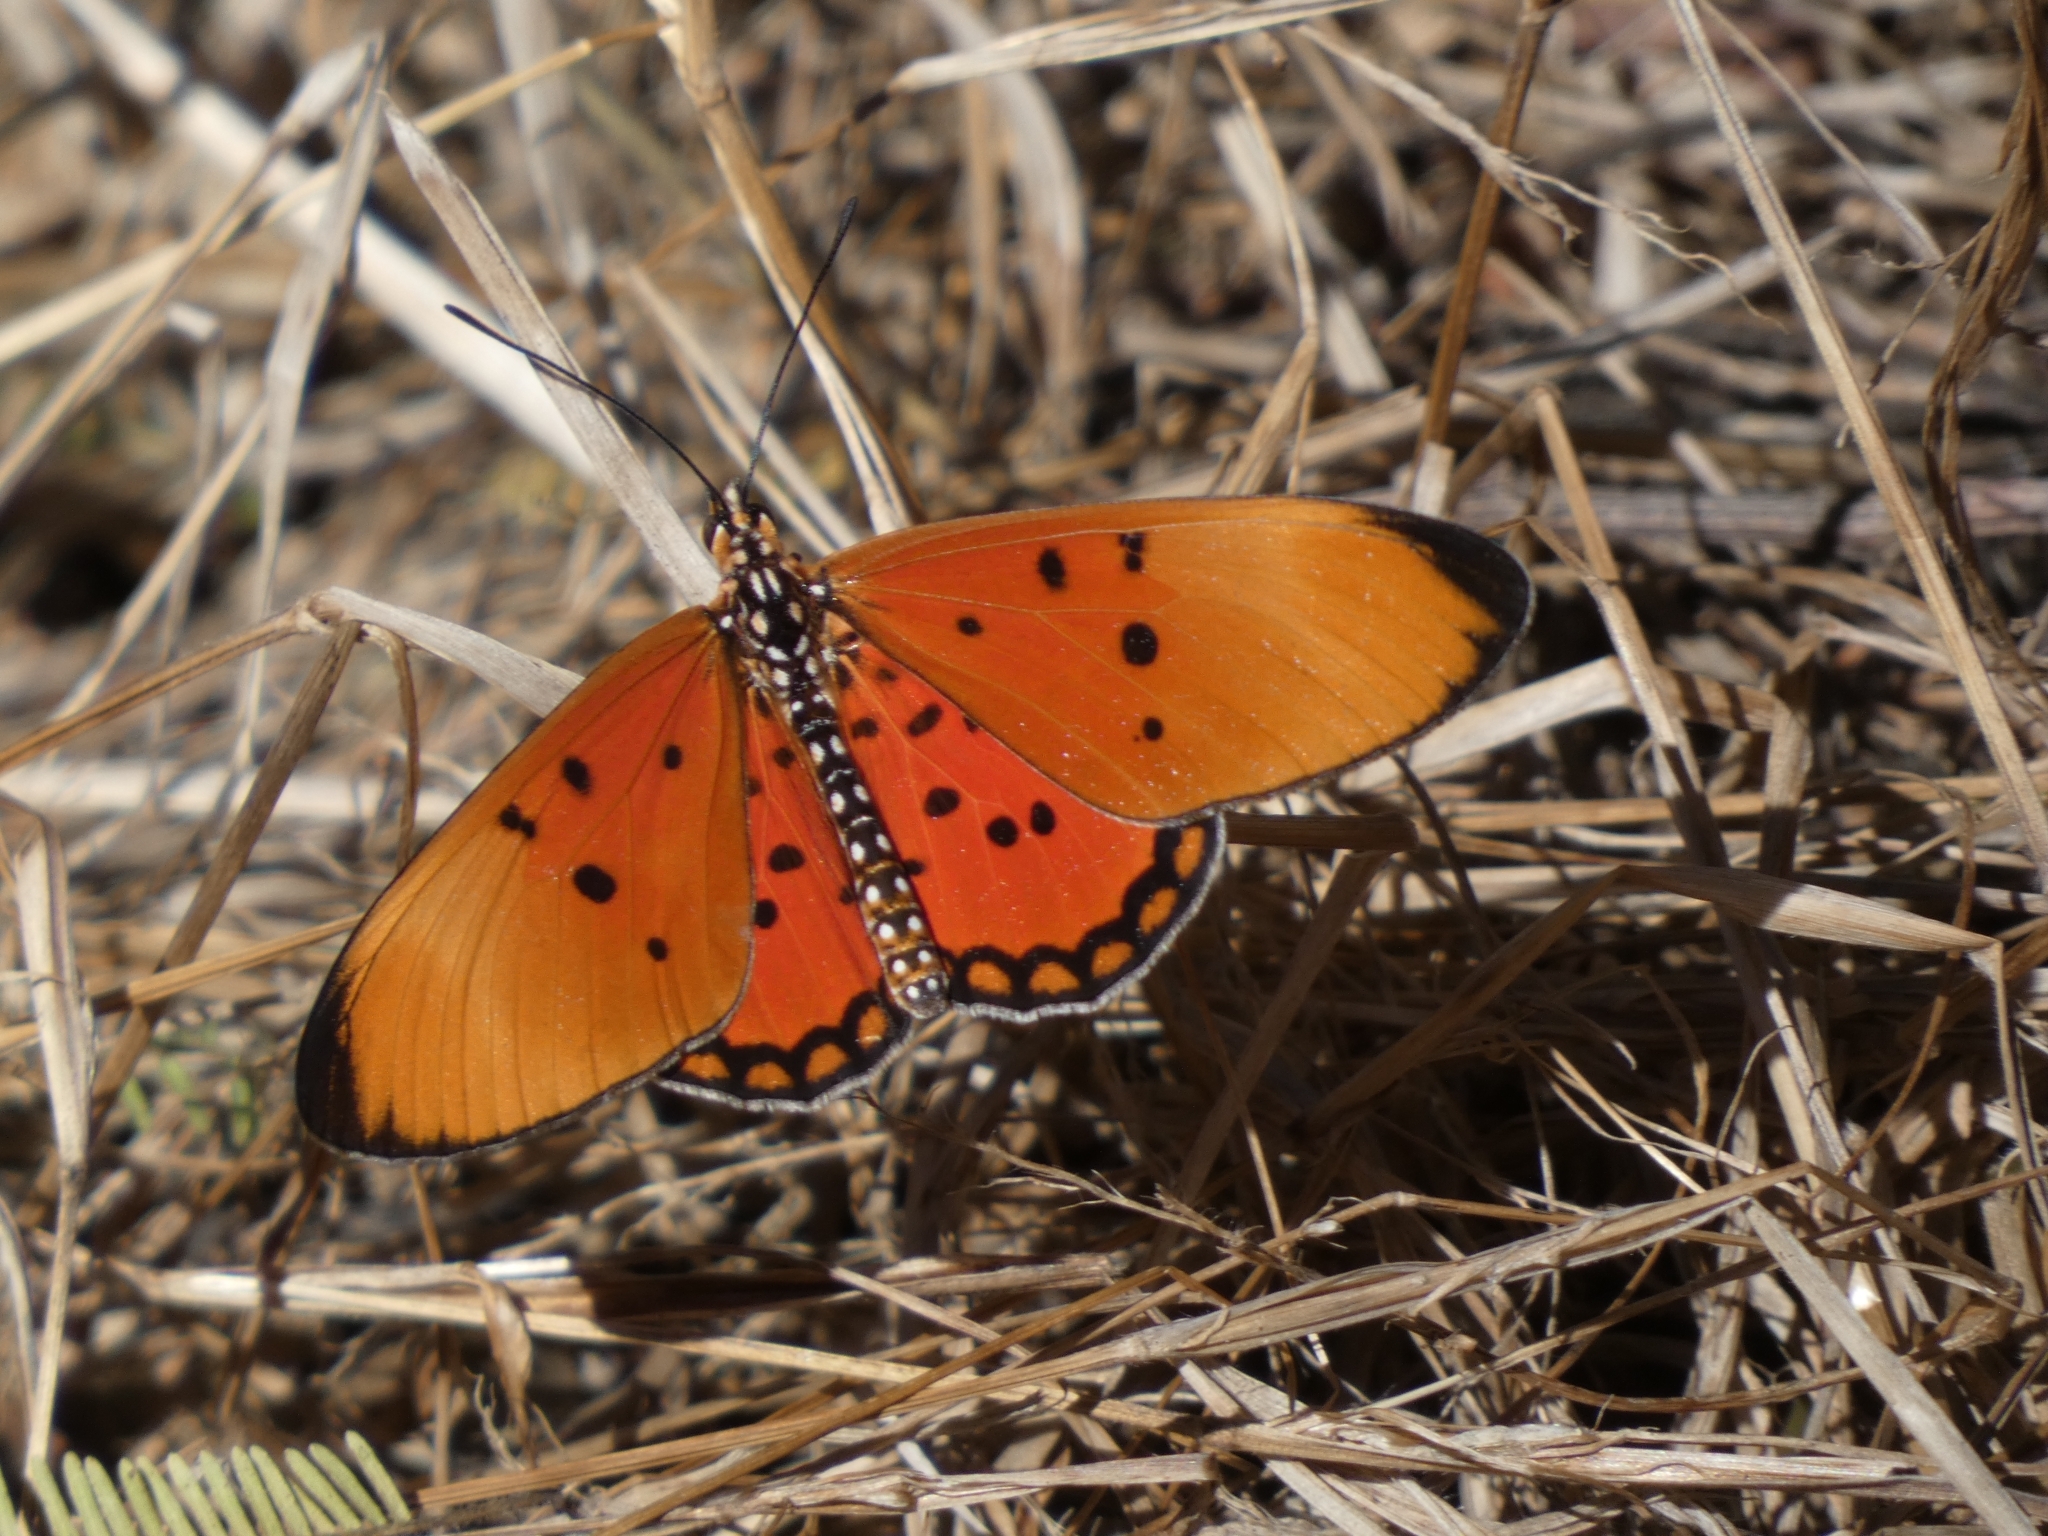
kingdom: Animalia
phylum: Arthropoda
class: Insecta
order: Lepidoptera
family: Nymphalidae
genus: Rubraea
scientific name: Rubraea
